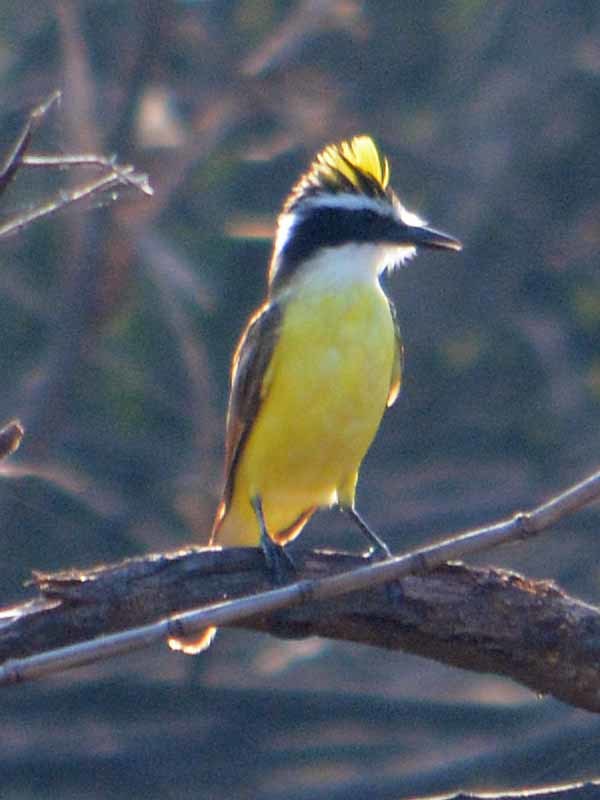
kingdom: Animalia
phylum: Chordata
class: Aves
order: Passeriformes
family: Tyrannidae
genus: Pitangus
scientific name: Pitangus sulphuratus
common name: Great kiskadee
